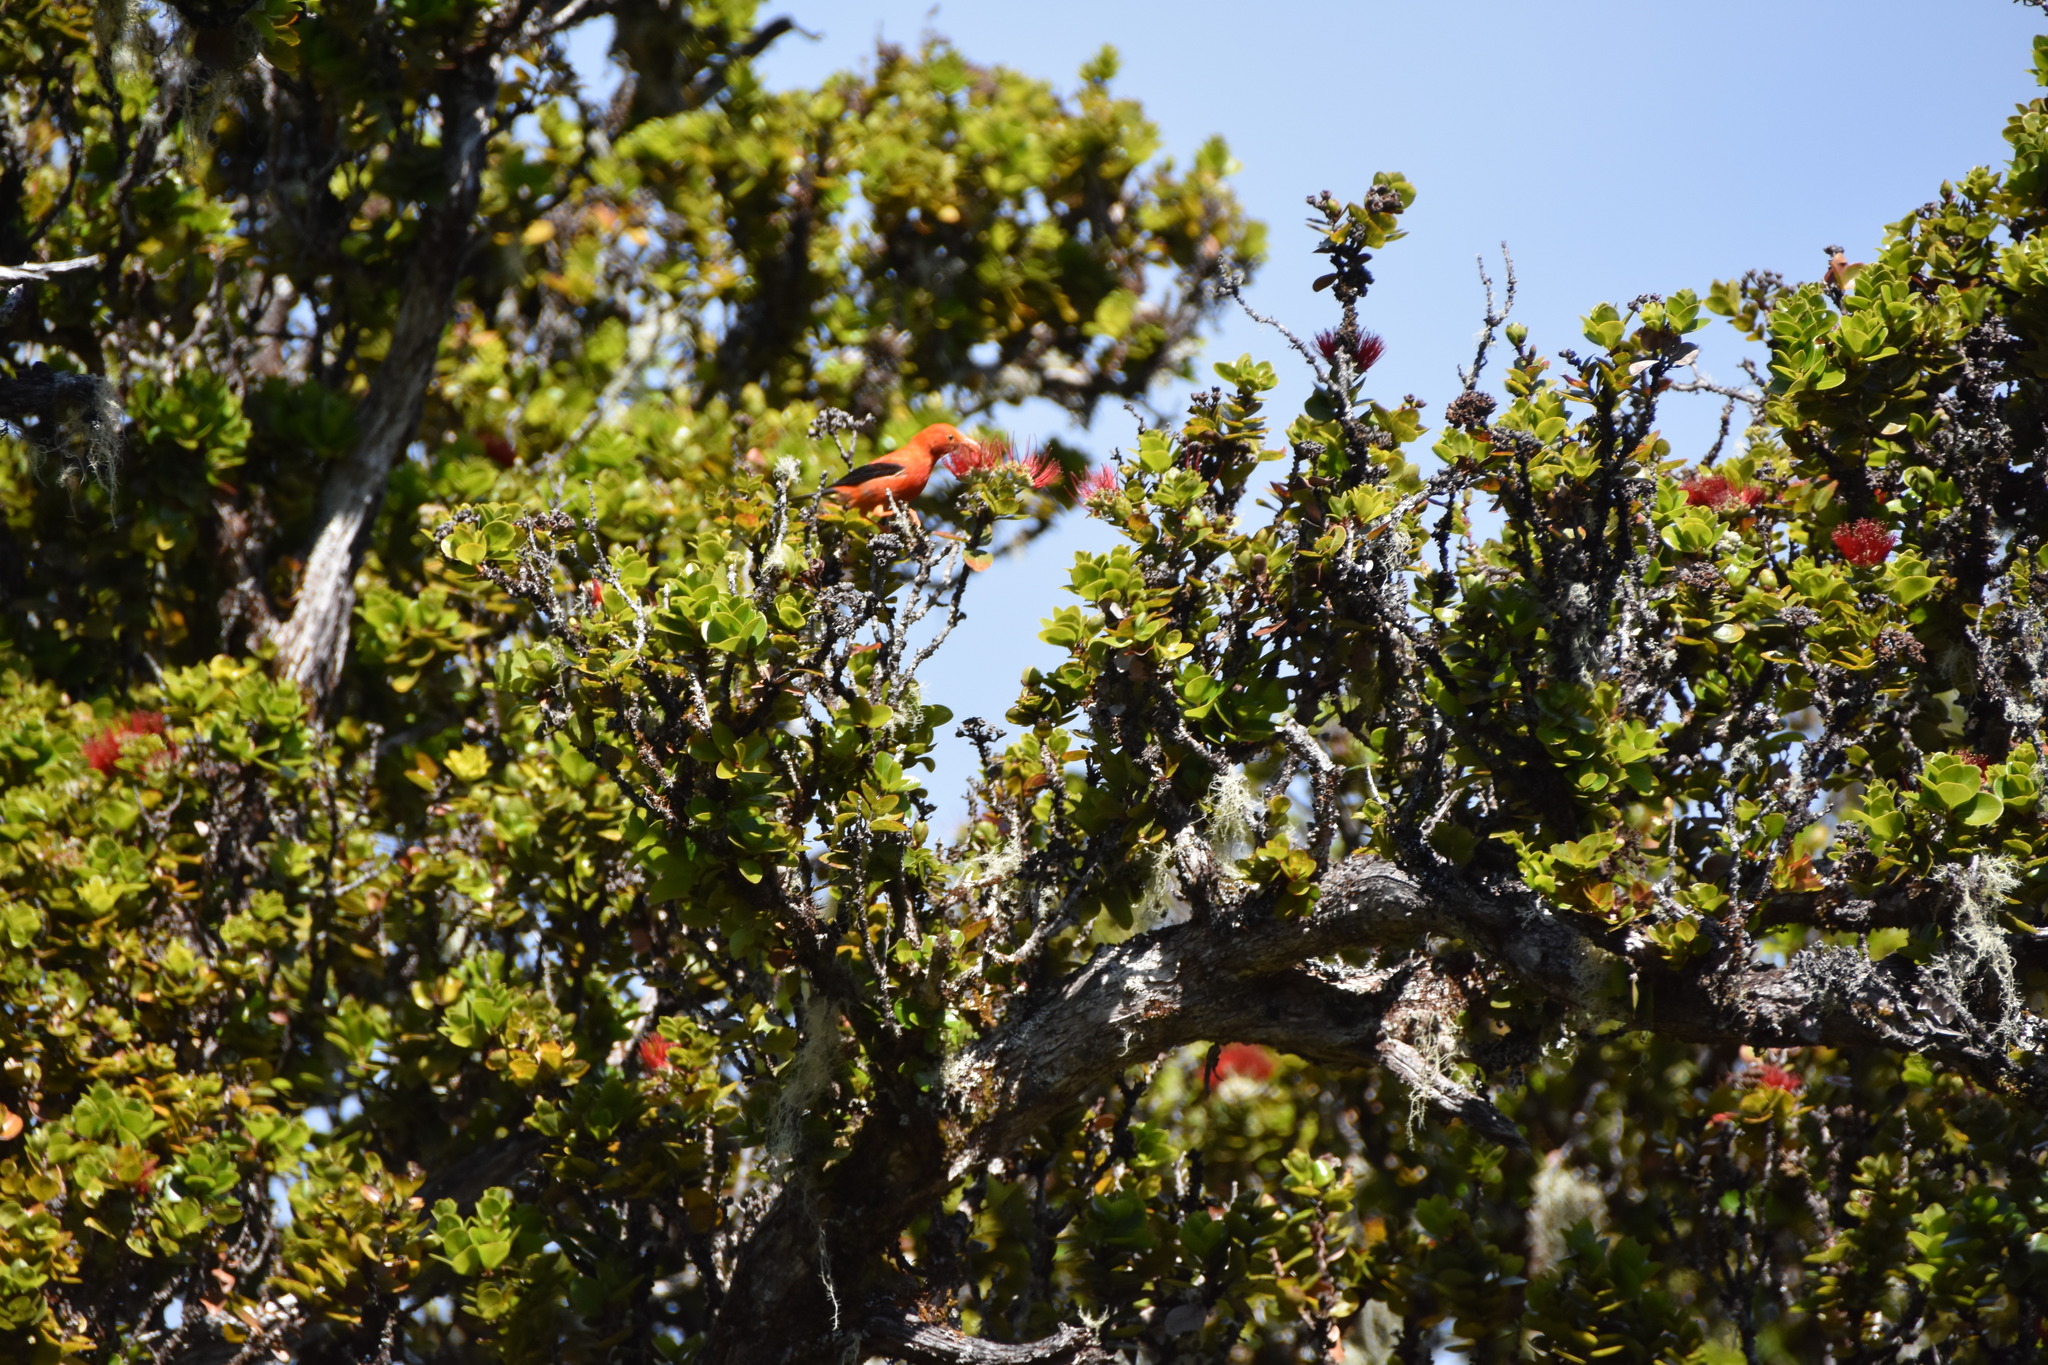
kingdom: Animalia
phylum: Chordata
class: Aves
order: Passeriformes
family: Fringillidae
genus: Vestiaria
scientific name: Vestiaria coccinea
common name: Iiwi
